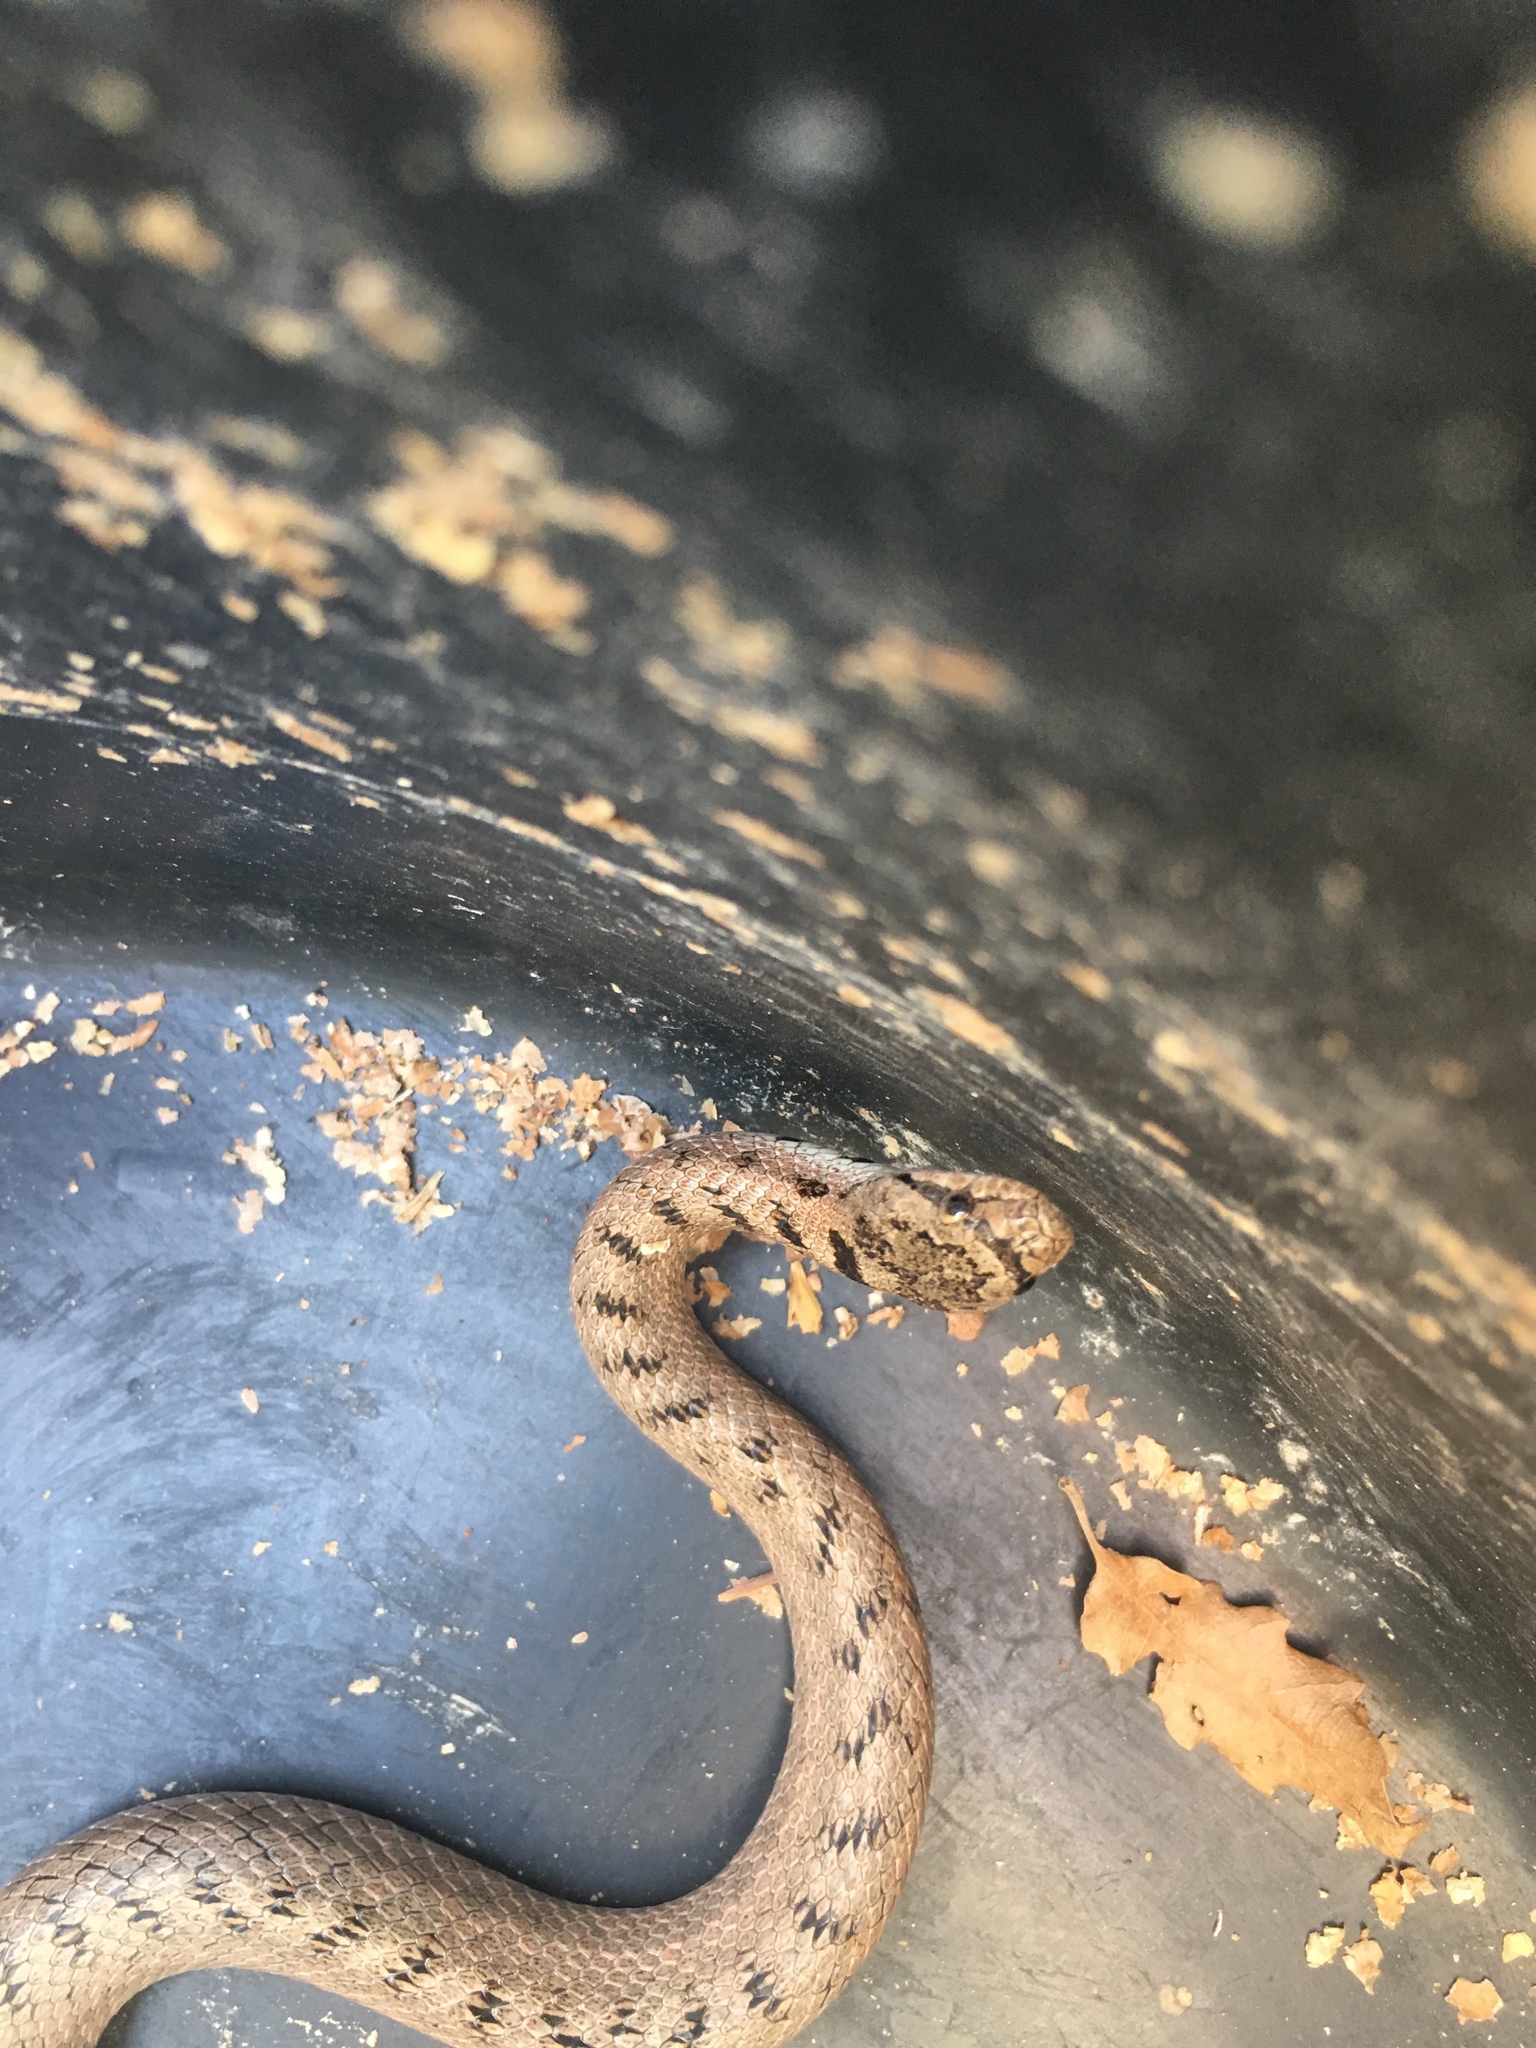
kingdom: Animalia
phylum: Chordata
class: Squamata
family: Colubridae
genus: Coronella
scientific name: Coronella girondica
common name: Southern smooth snake
